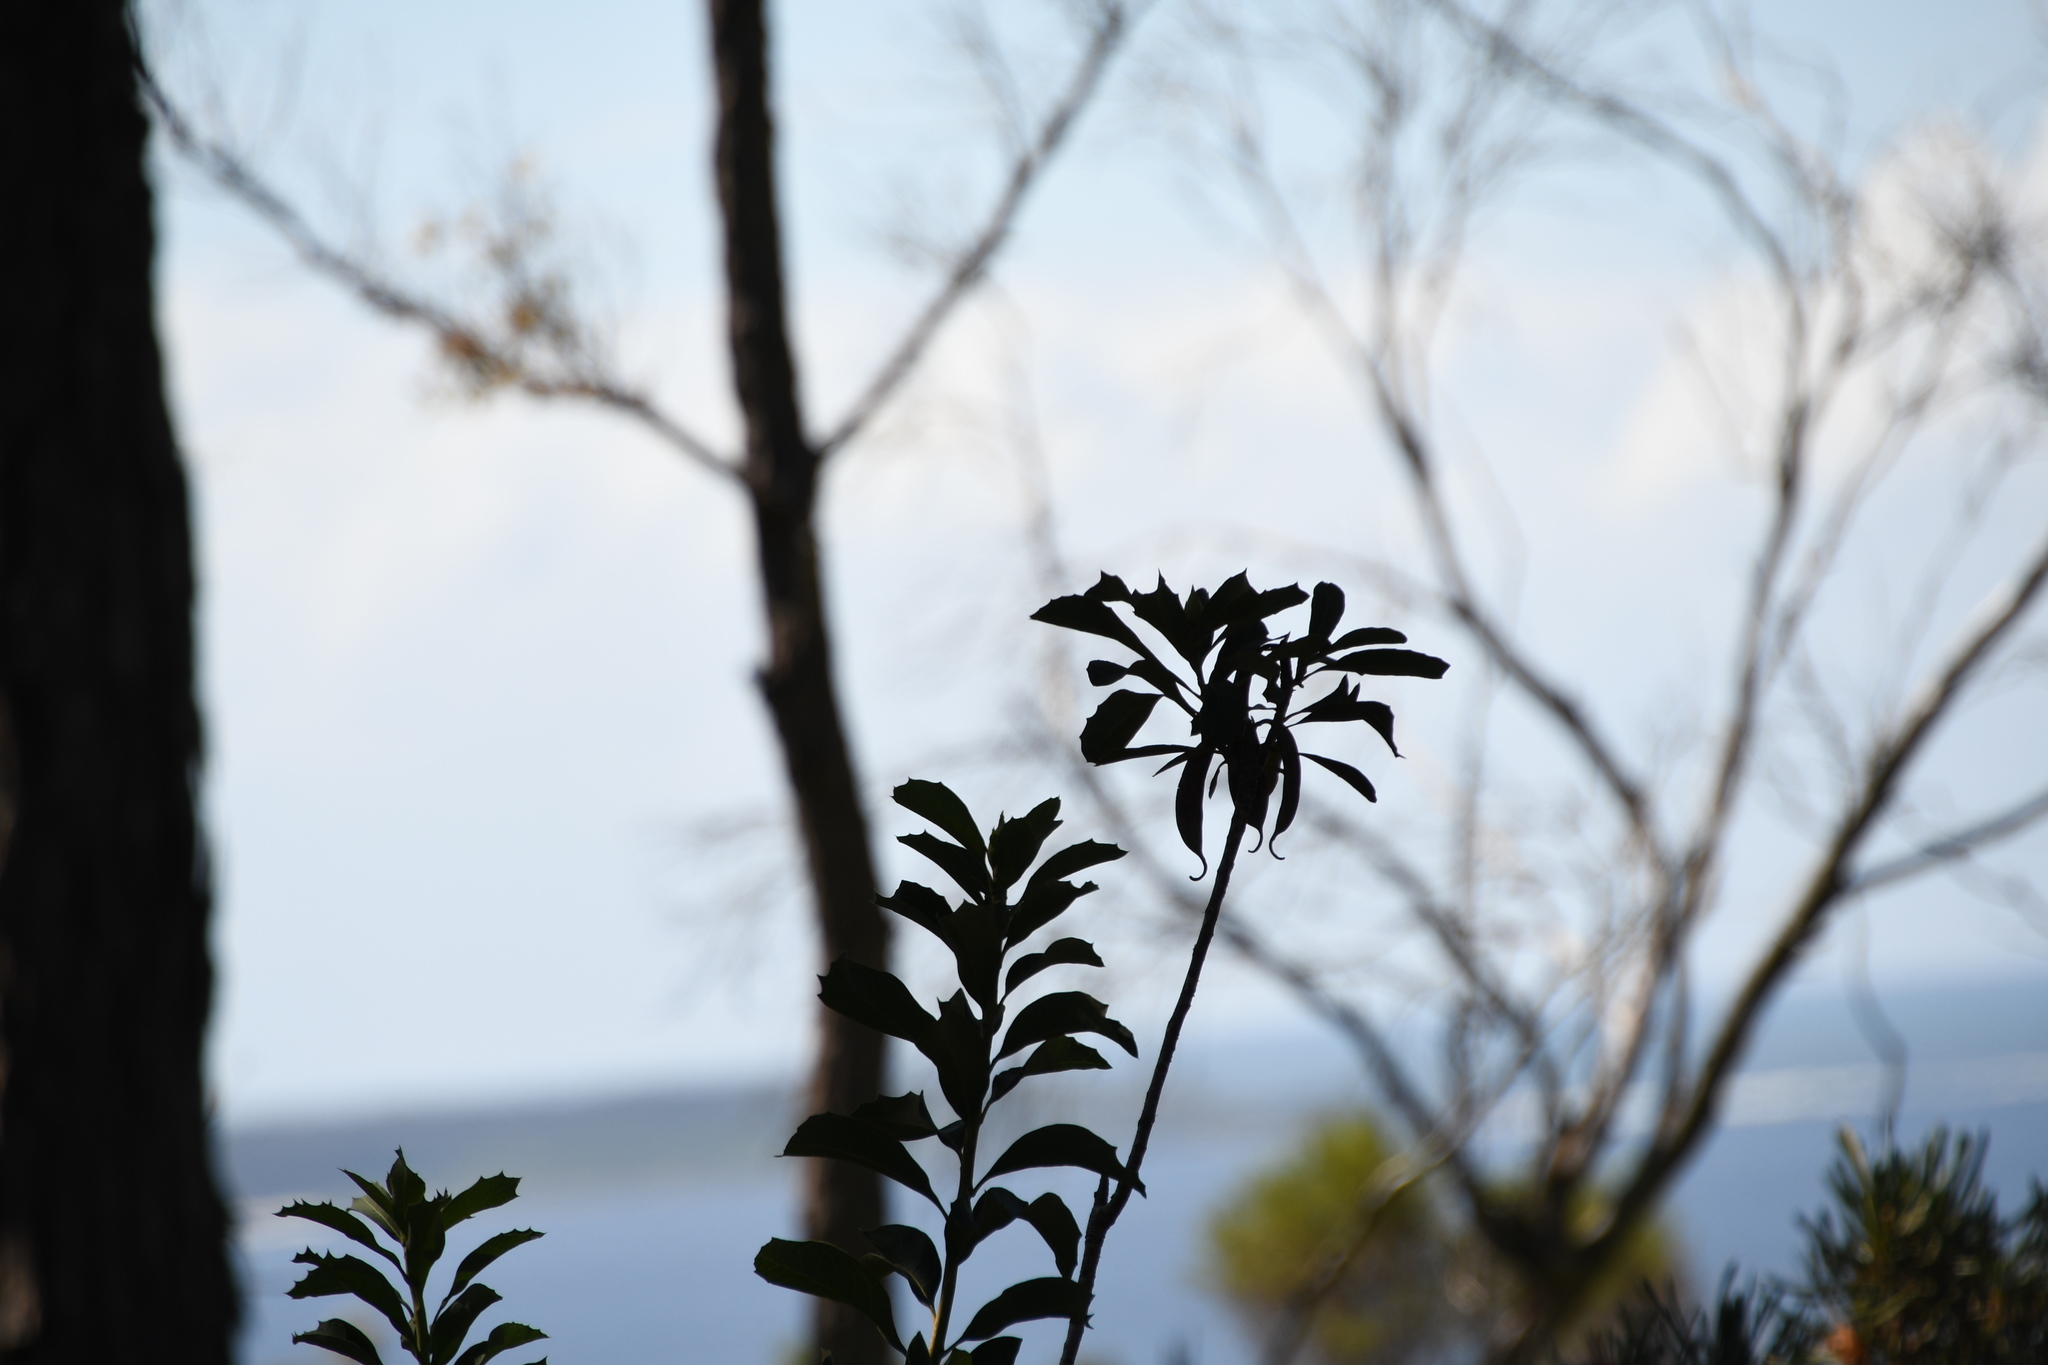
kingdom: Plantae
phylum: Tracheophyta
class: Magnoliopsida
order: Proteales
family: Proteaceae
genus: Telopea
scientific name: Telopea speciosissima
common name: New south wales waratah
